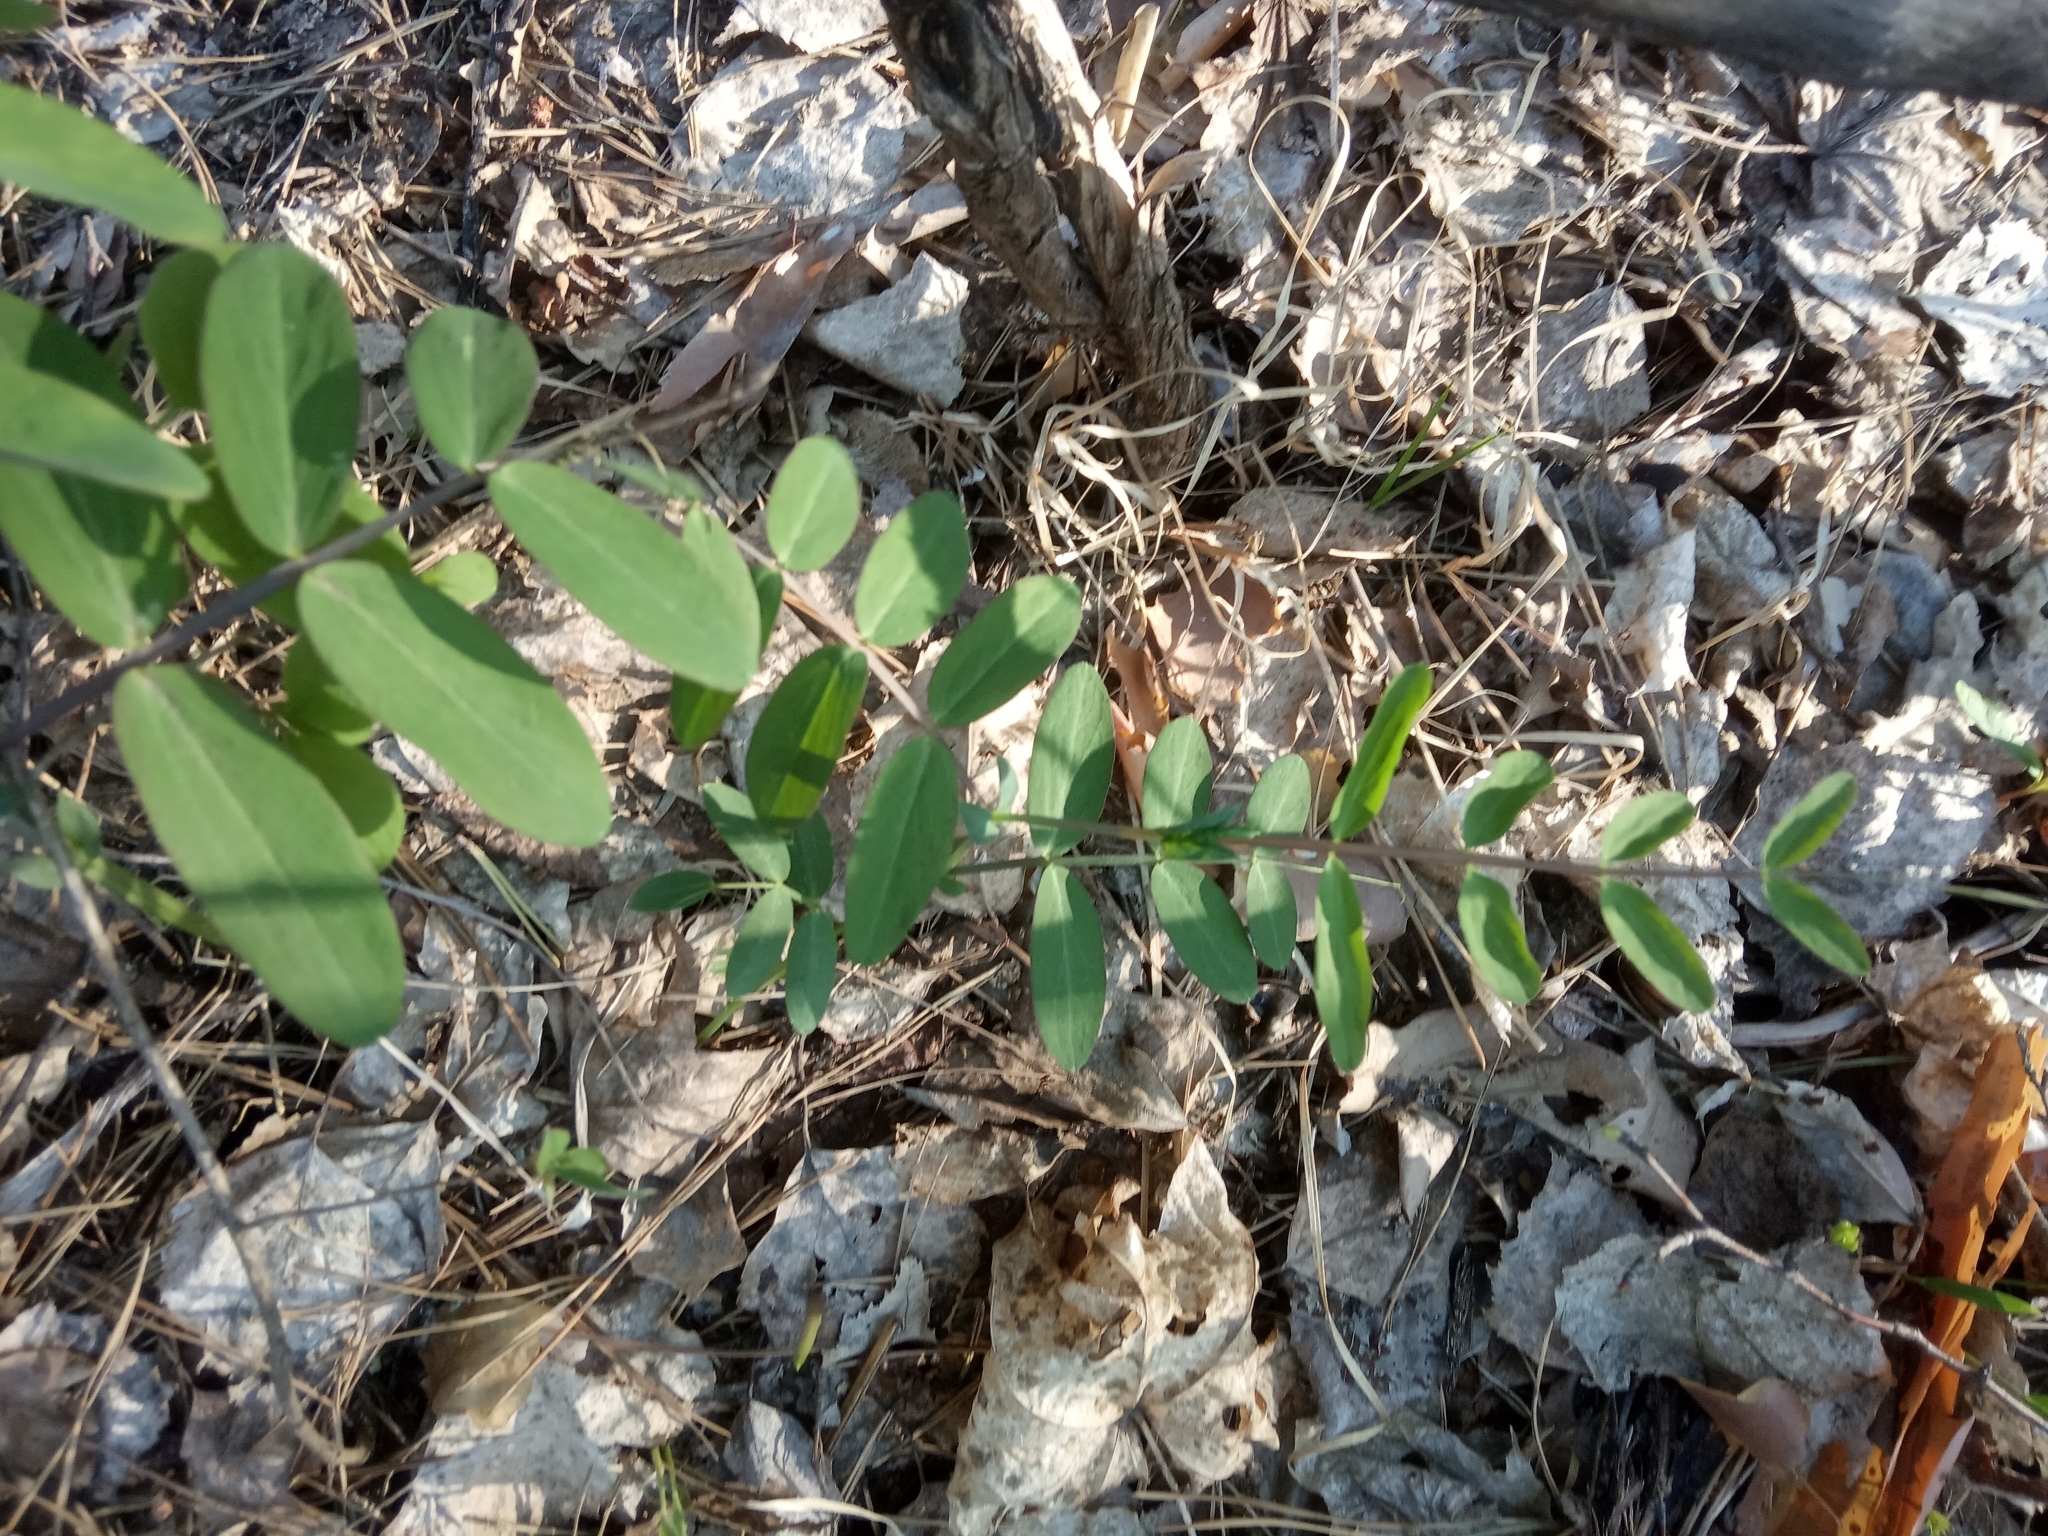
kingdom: Plantae
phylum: Tracheophyta
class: Magnoliopsida
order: Fabales
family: Fabaceae
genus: Lathyrus
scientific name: Lathyrus pisiformis
